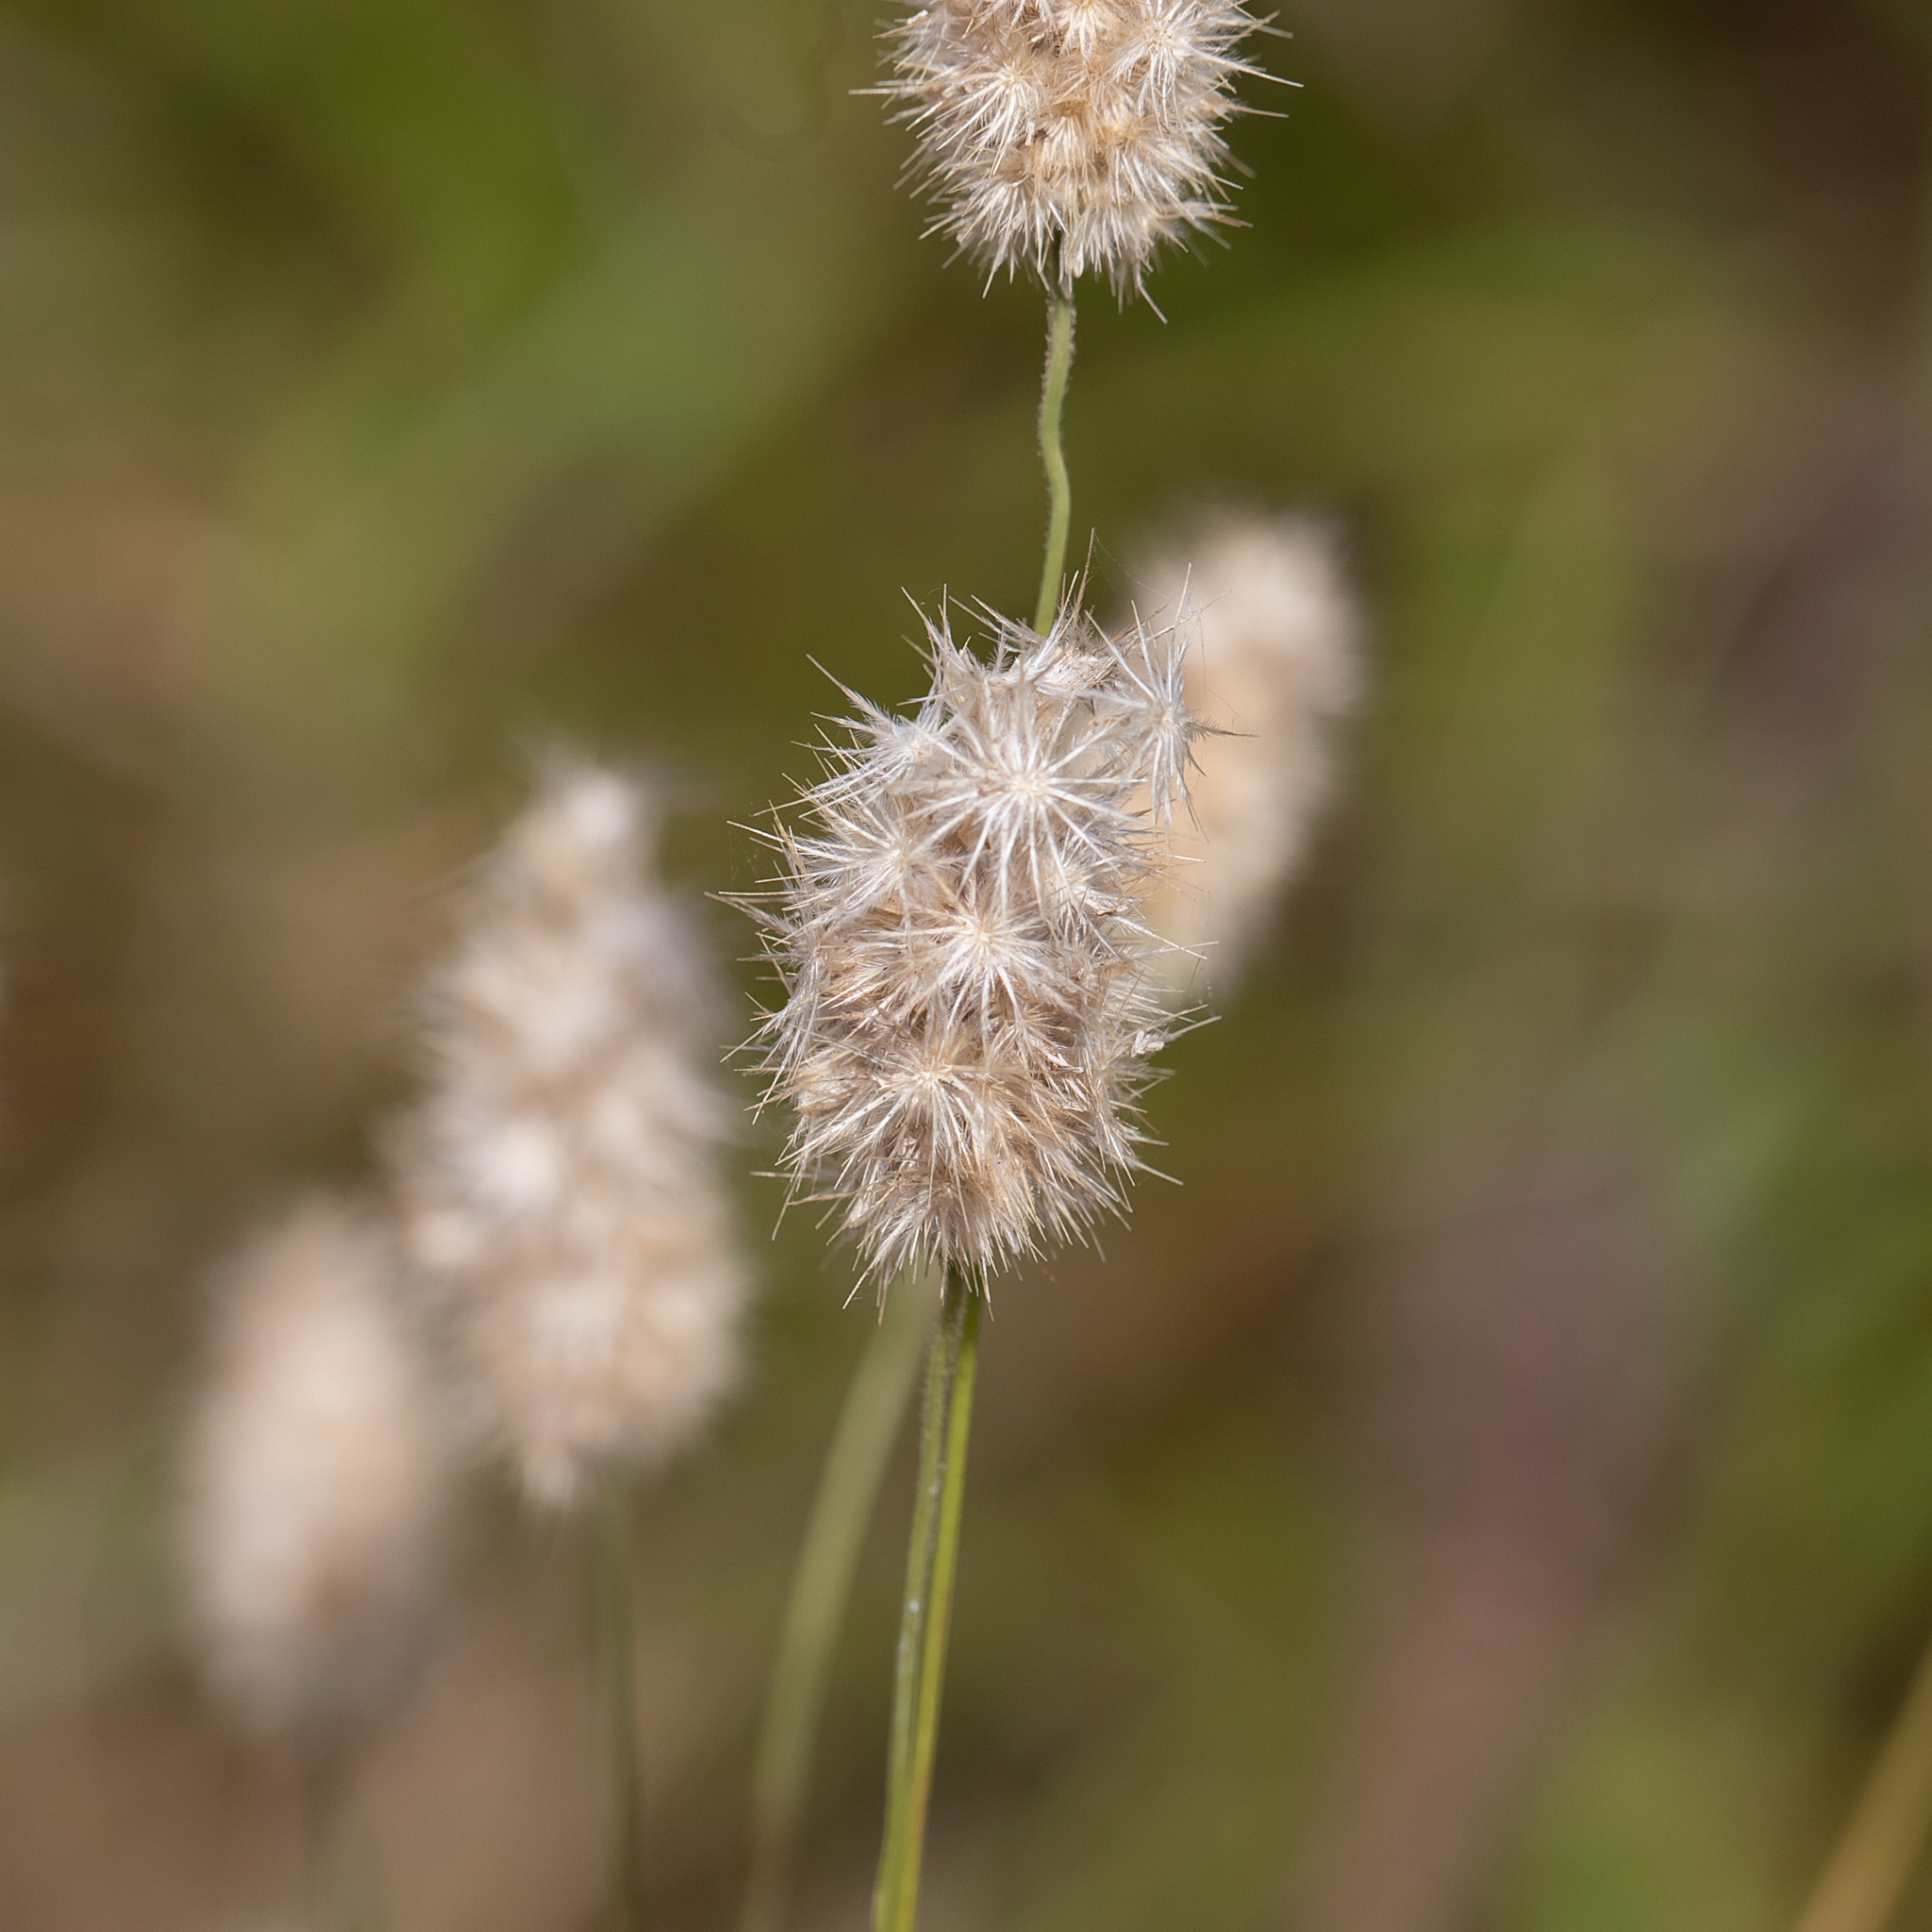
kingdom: Plantae
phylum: Tracheophyta
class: Liliopsida
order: Poales
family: Poaceae
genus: Enneapogon
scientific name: Enneapogon lindleyanus
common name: Conetop nineawn
